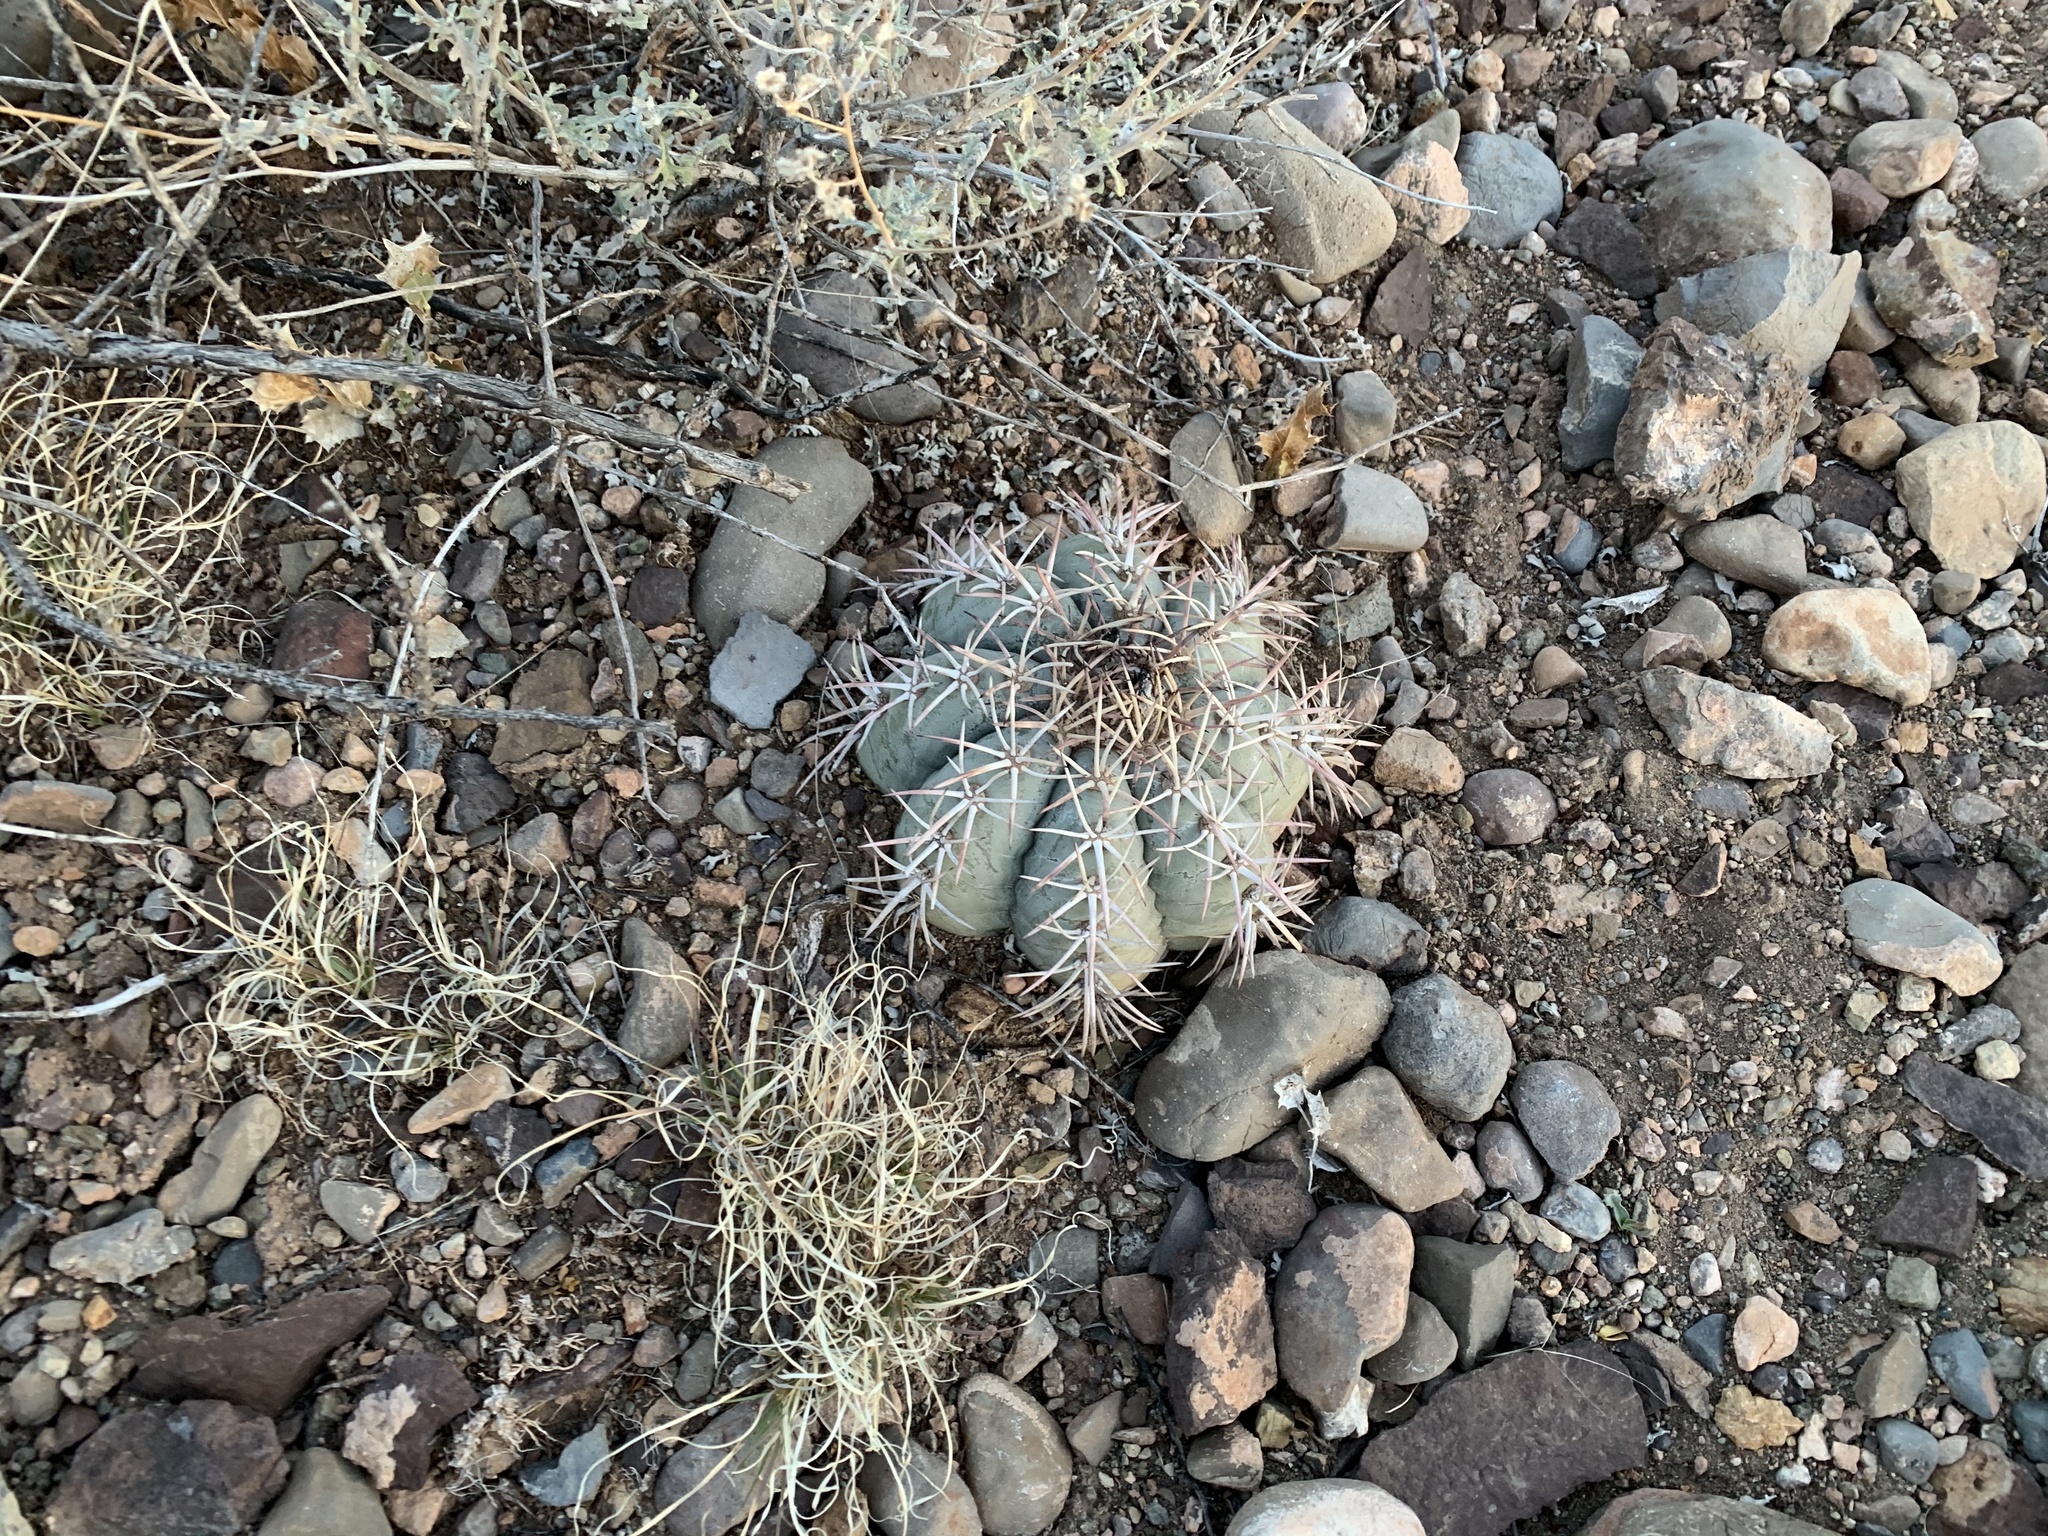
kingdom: Plantae
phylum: Tracheophyta
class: Magnoliopsida
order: Caryophyllales
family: Cactaceae
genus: Echinocactus
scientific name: Echinocactus horizonthalonius
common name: Devilshead
